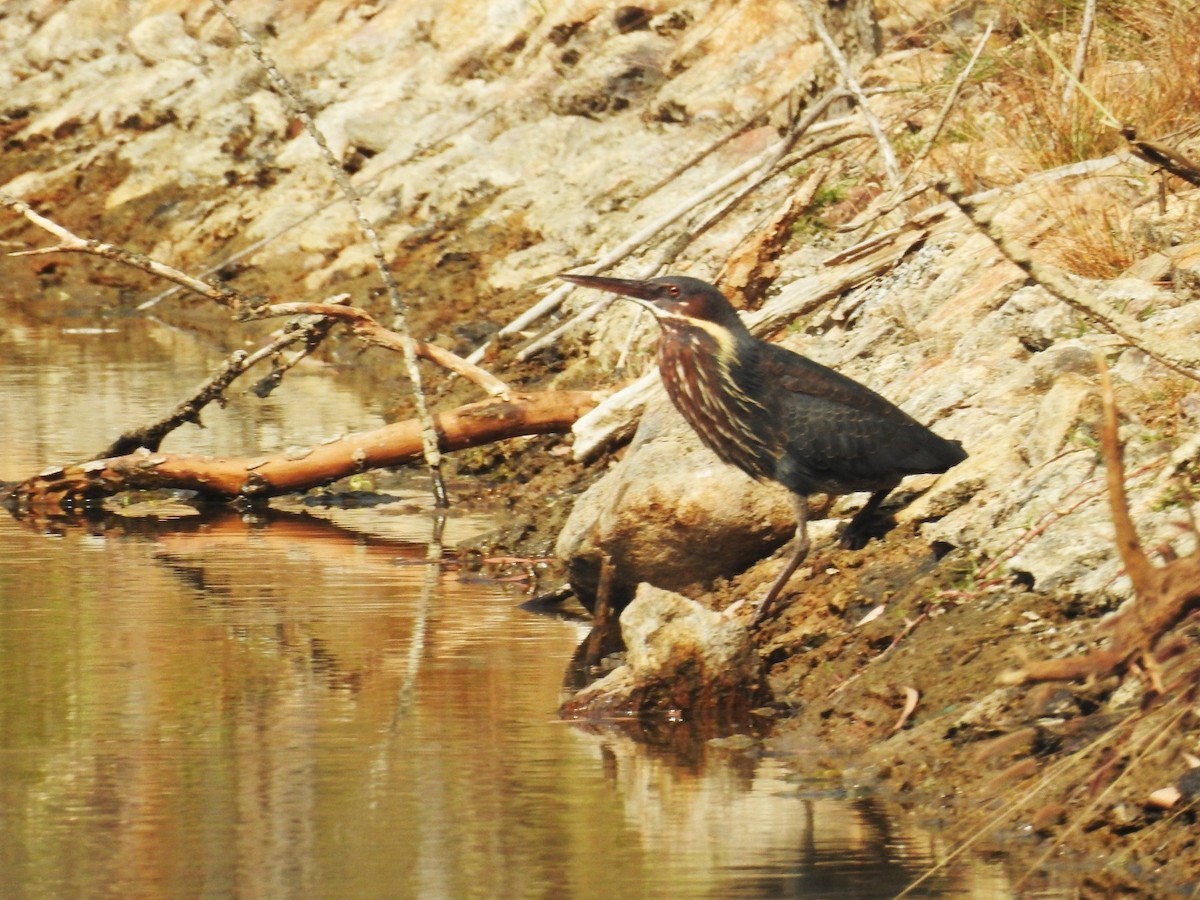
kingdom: Animalia
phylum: Chordata
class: Aves
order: Pelecaniformes
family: Ardeidae
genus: Dupetor
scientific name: Dupetor flavicollis
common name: Black bittern
